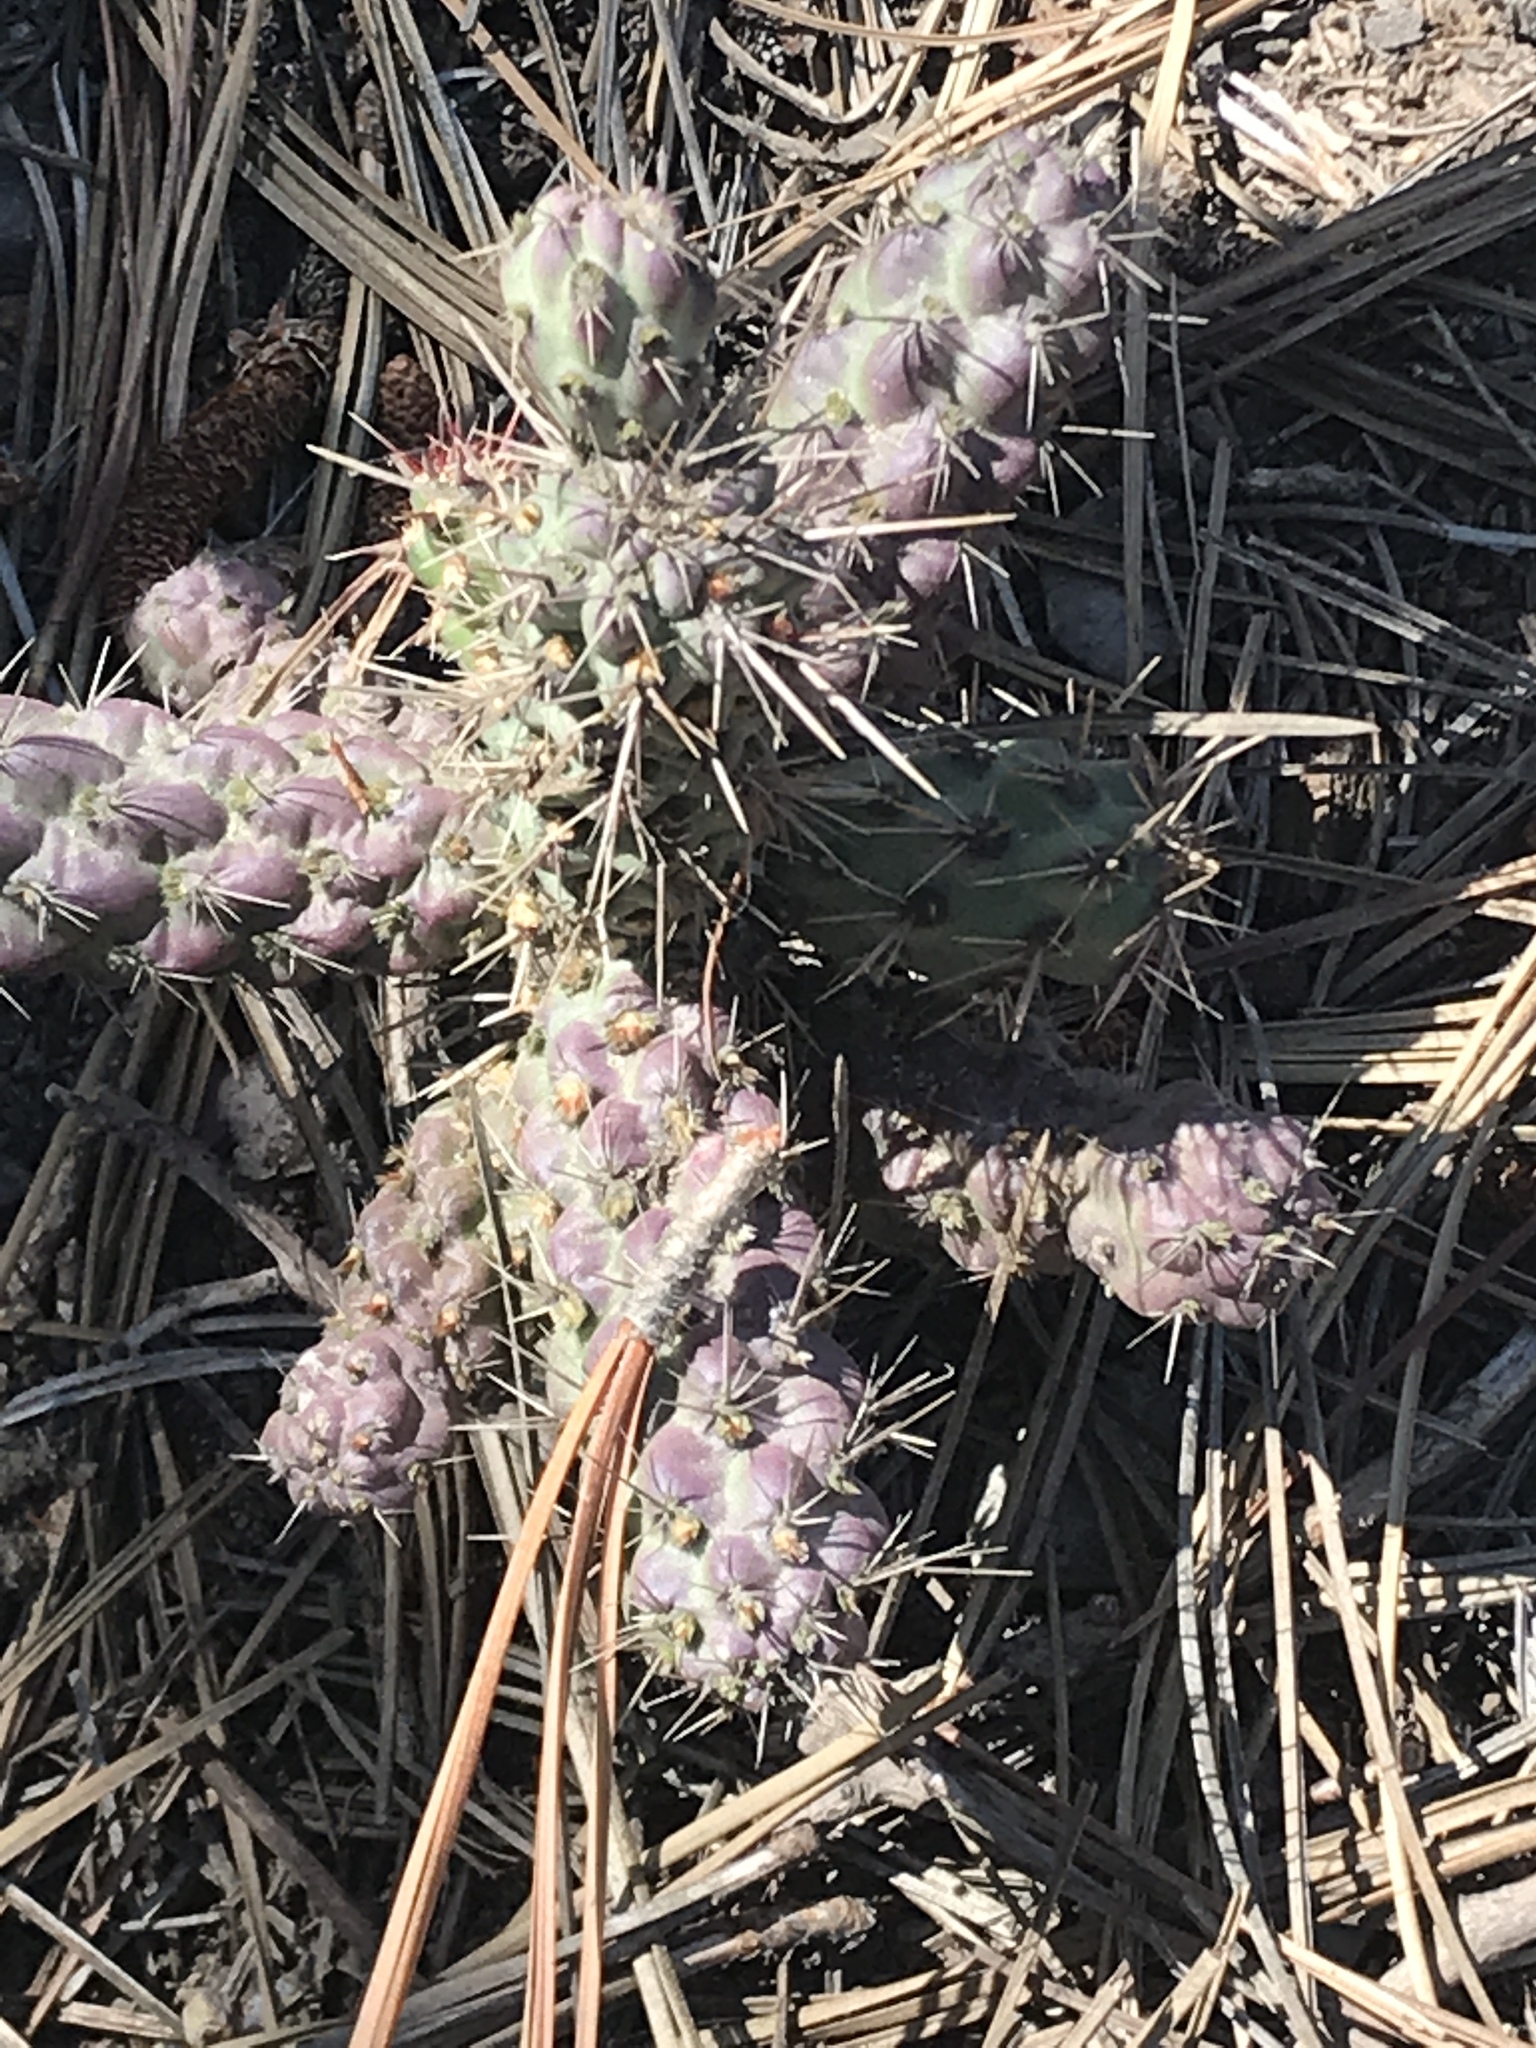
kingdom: Plantae
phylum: Tracheophyta
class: Magnoliopsida
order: Caryophyllales
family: Cactaceae
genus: Cylindropuntia
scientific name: Cylindropuntia prolifera
